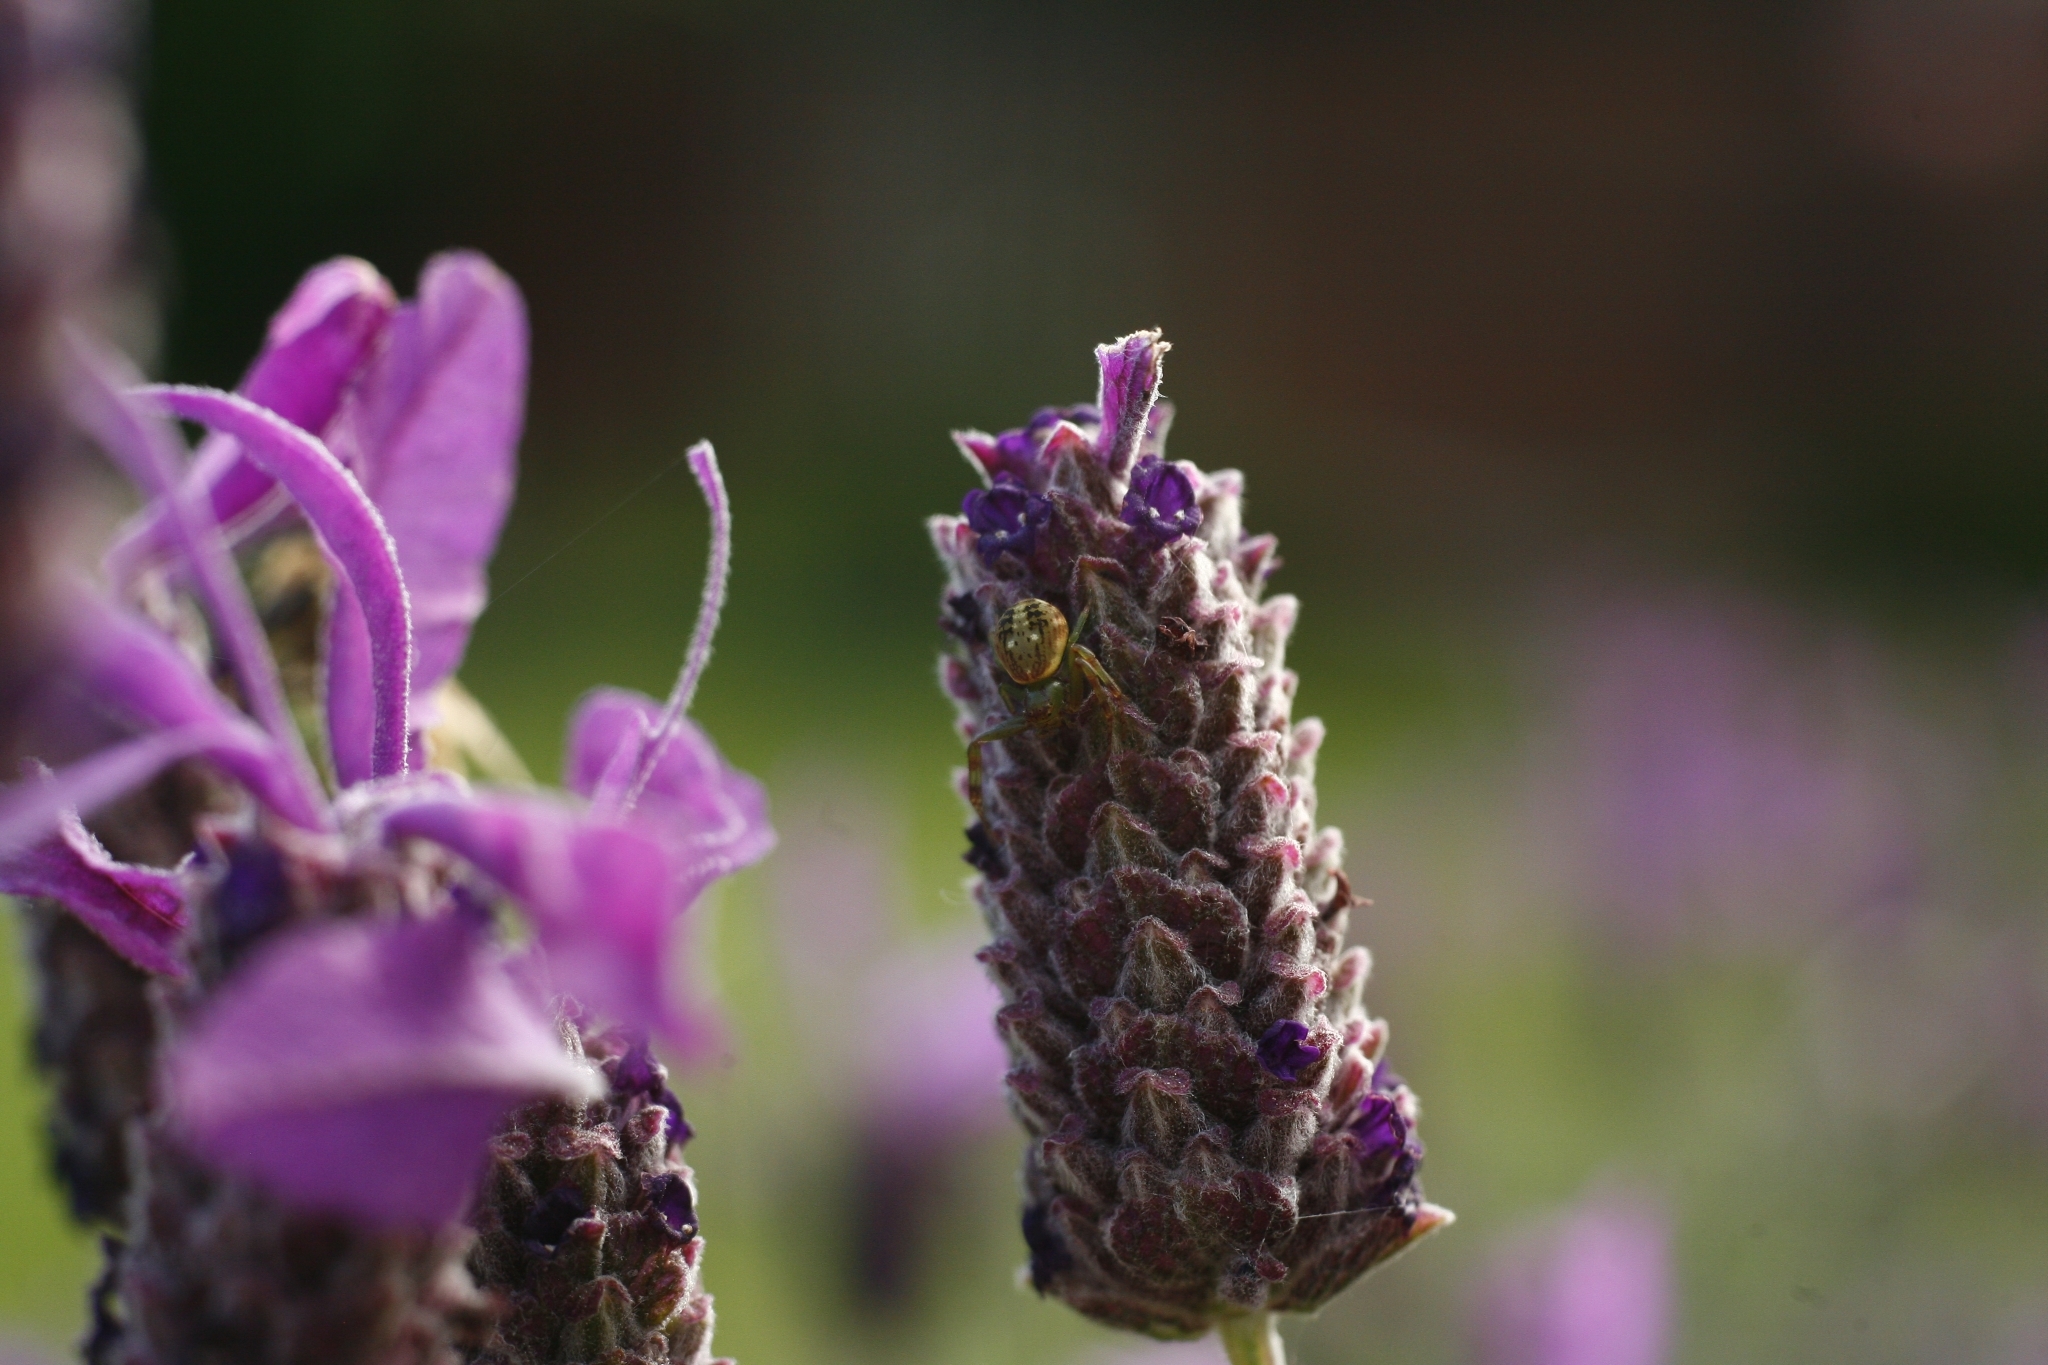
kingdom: Animalia
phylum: Arthropoda
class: Arachnida
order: Araneae
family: Thomisidae
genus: Diaea
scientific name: Diaea ambara
